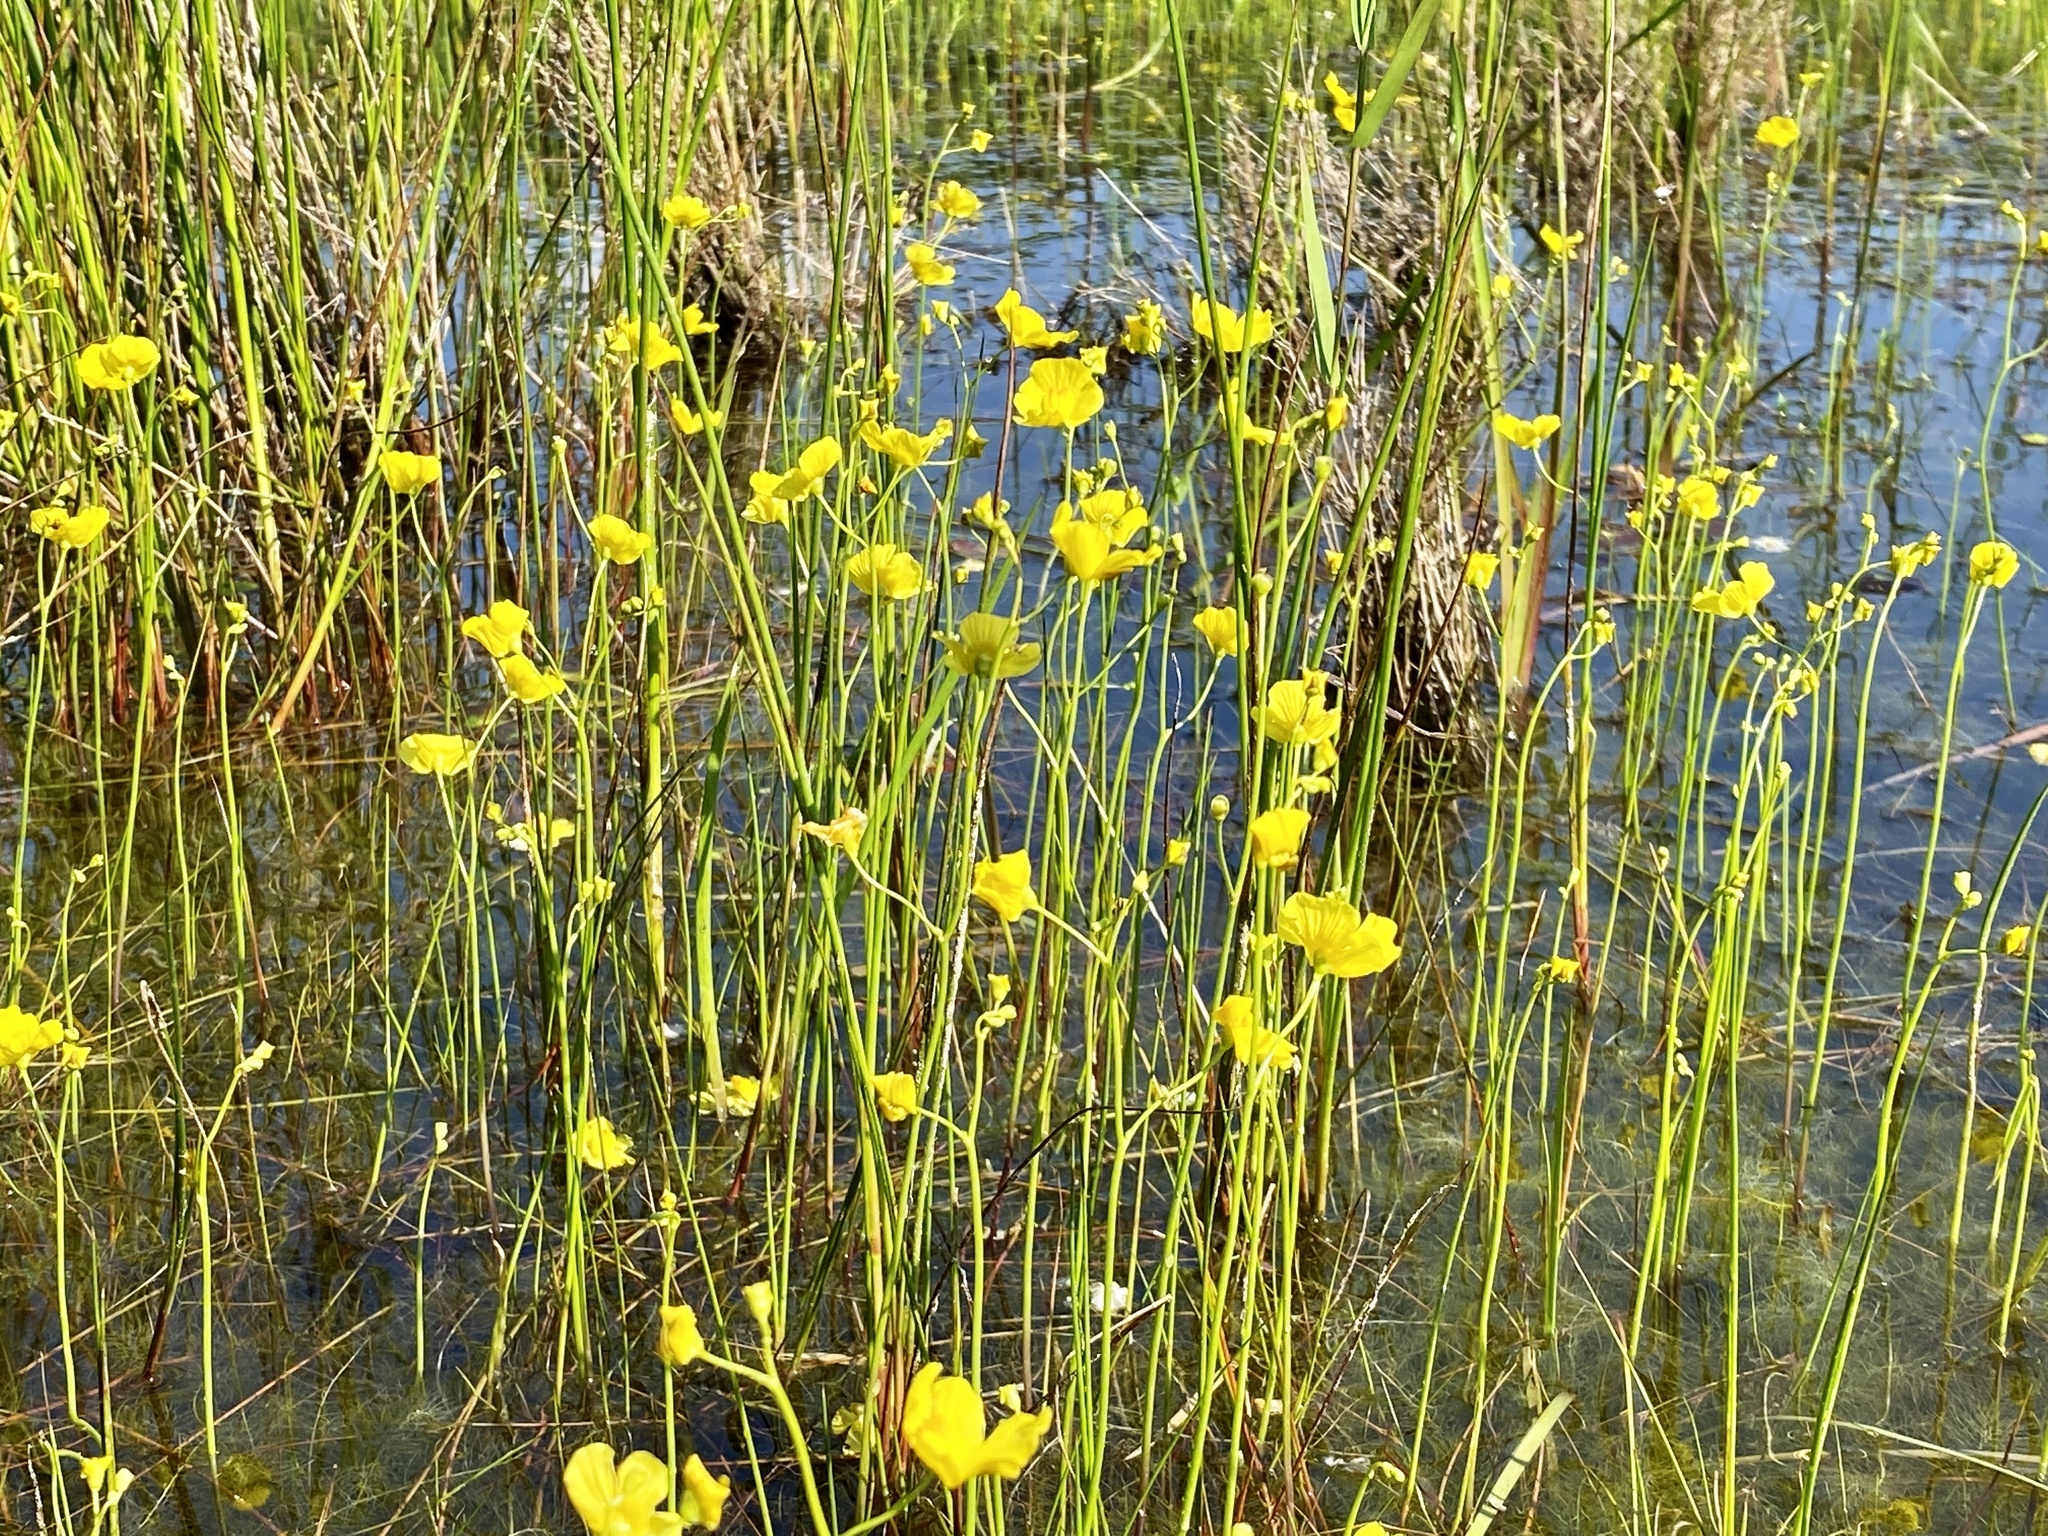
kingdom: Plantae
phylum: Tracheophyta
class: Magnoliopsida
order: Lamiales
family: Lentibulariaceae
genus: Utricularia
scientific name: Utricularia striata
